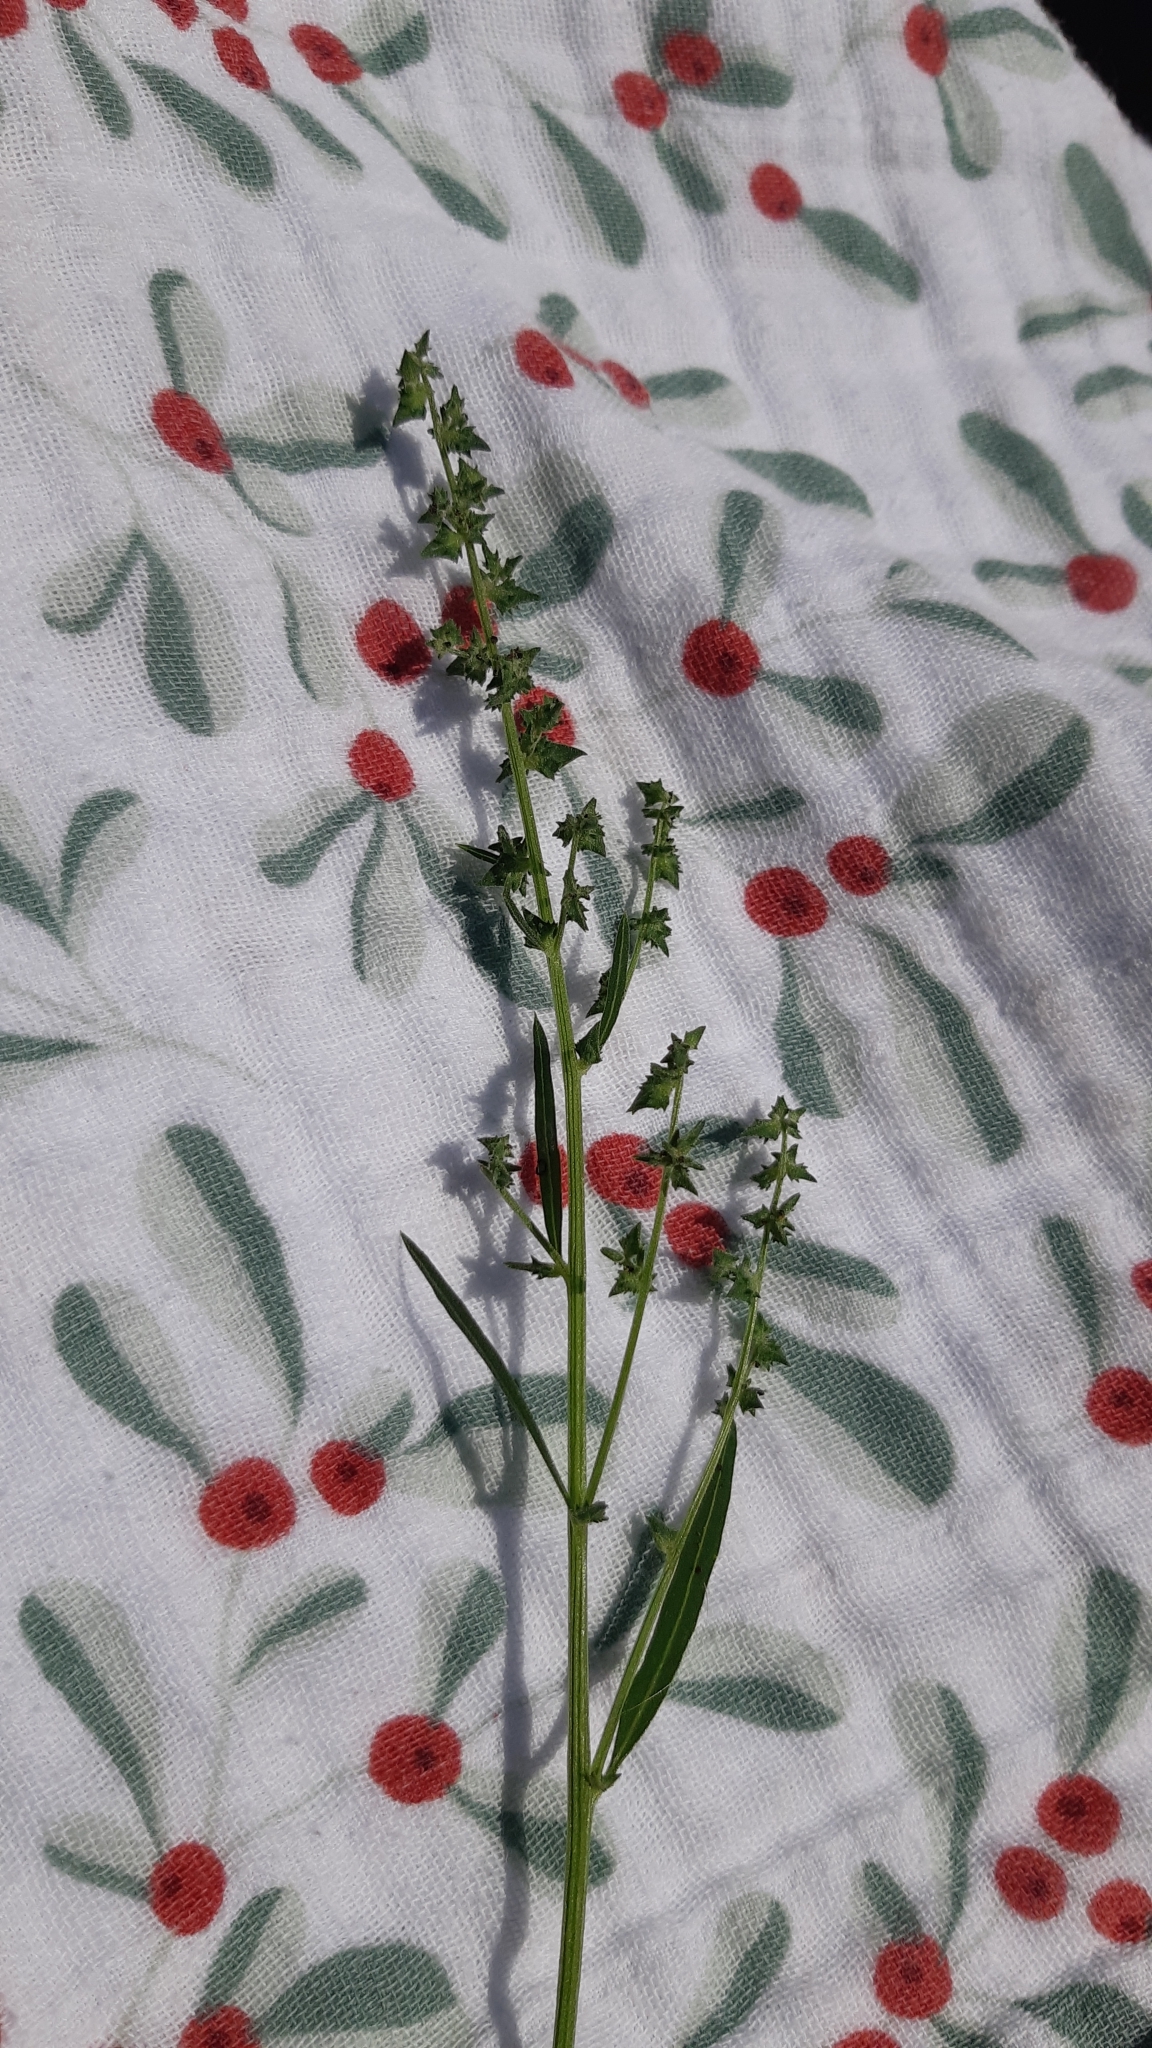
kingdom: Plantae
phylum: Tracheophyta
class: Magnoliopsida
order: Caryophyllales
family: Amaranthaceae
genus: Atriplex
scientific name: Atriplex patula
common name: Common orache
